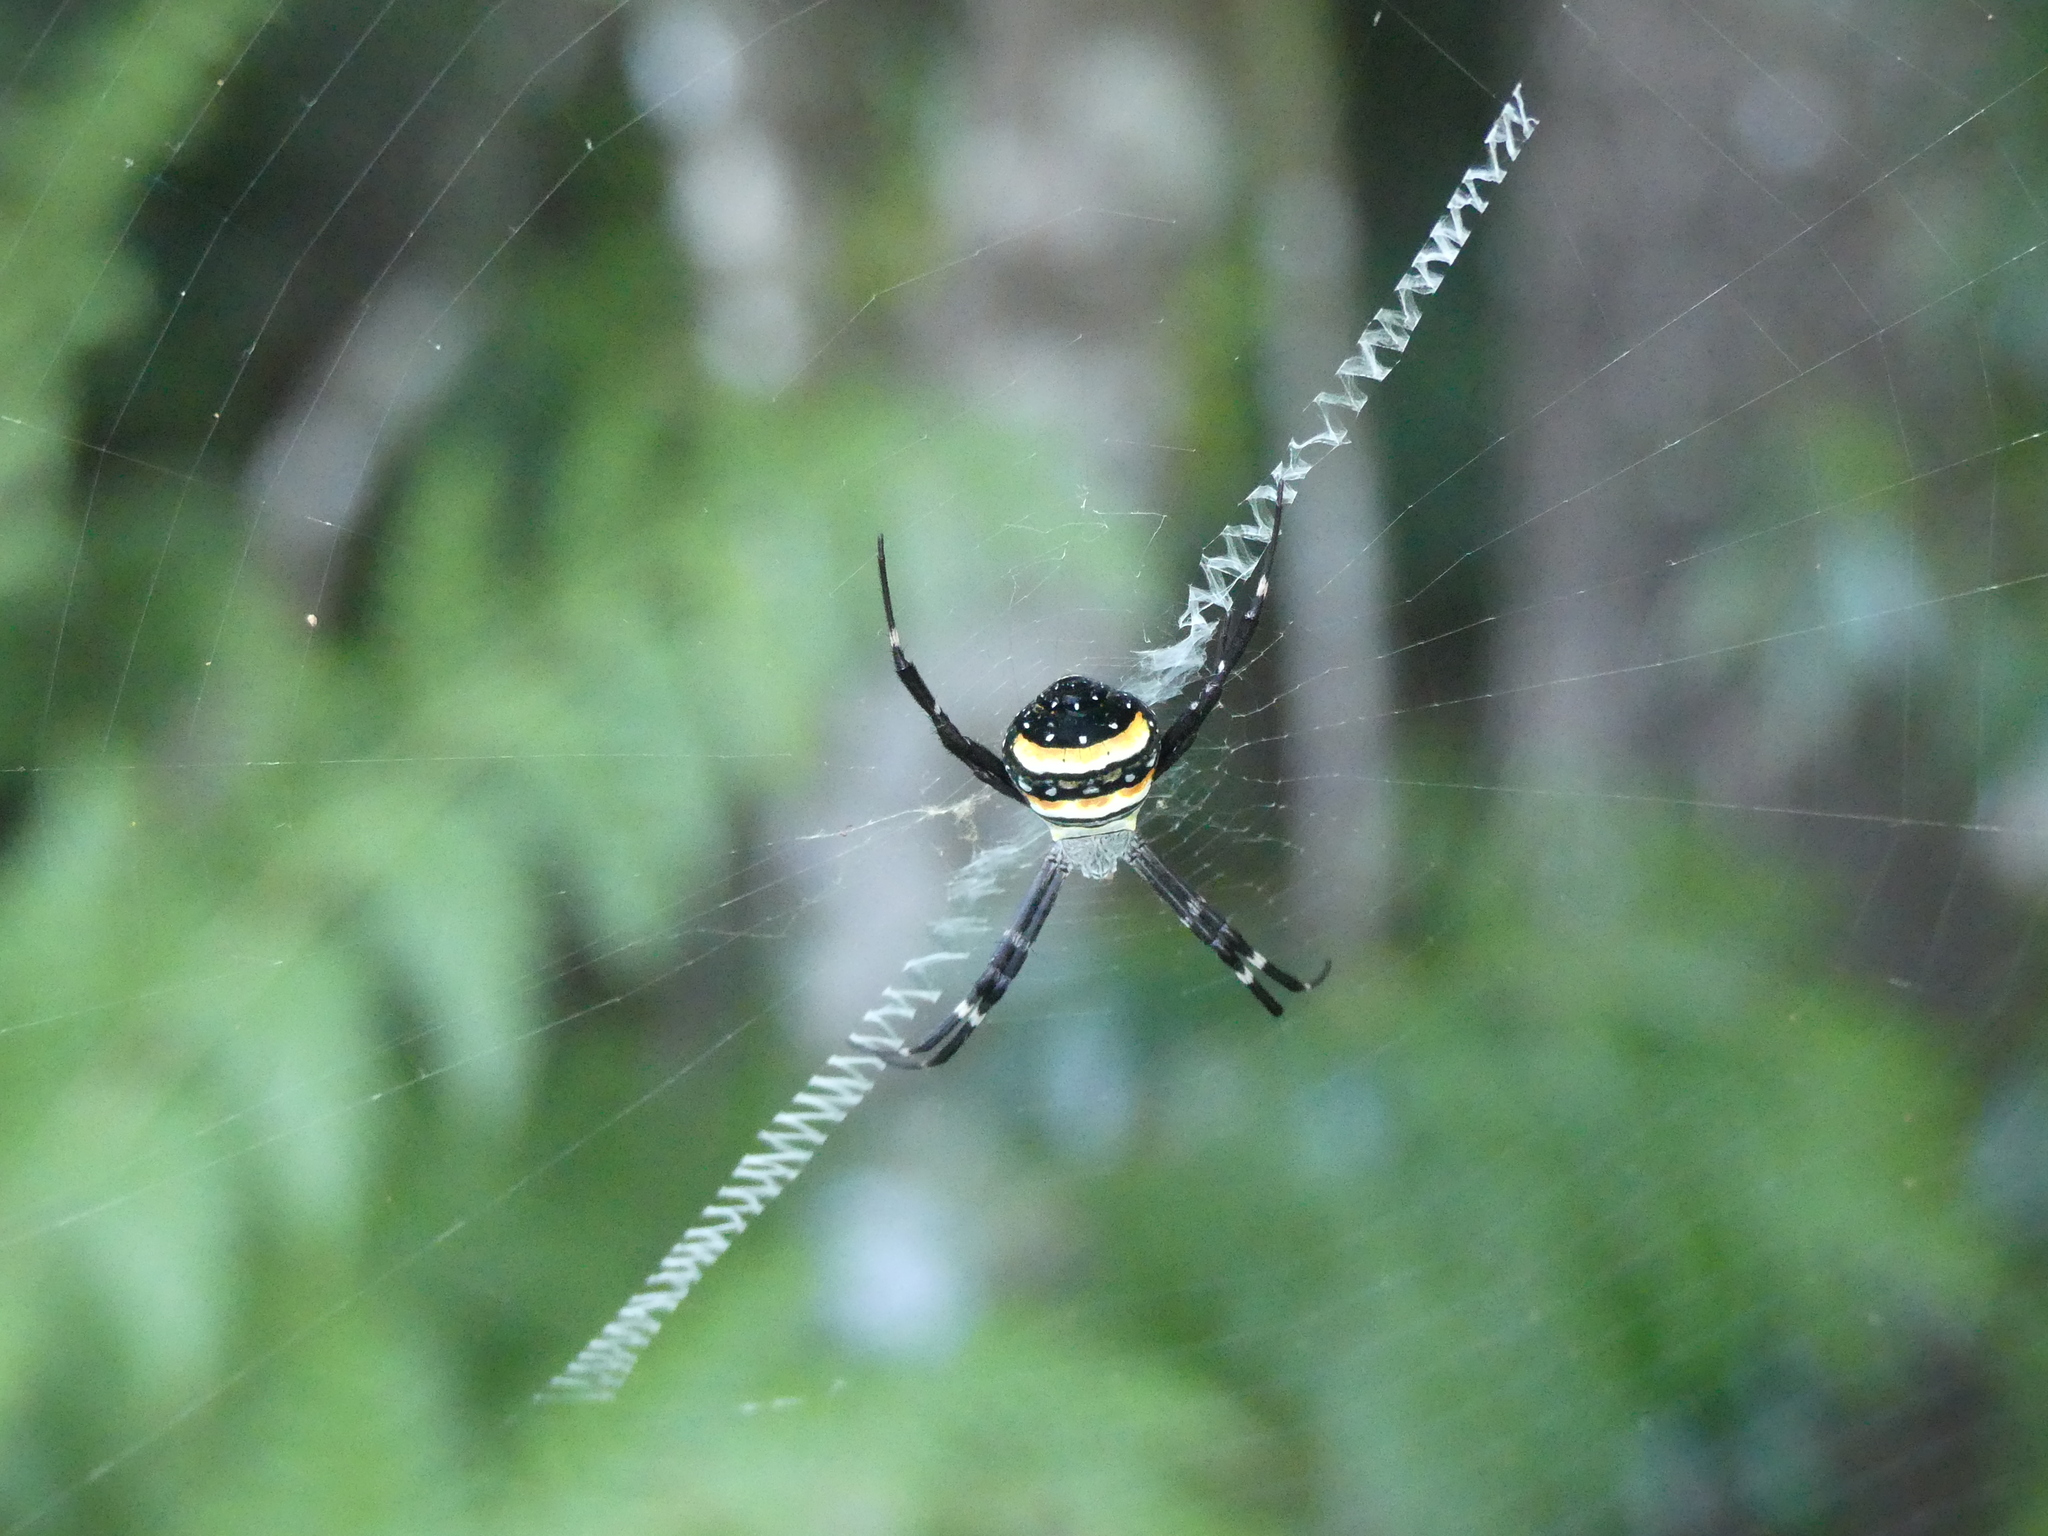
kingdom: Animalia
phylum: Arthropoda
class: Arachnida
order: Araneae
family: Araneidae
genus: Argiope
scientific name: Argiope caledonia
